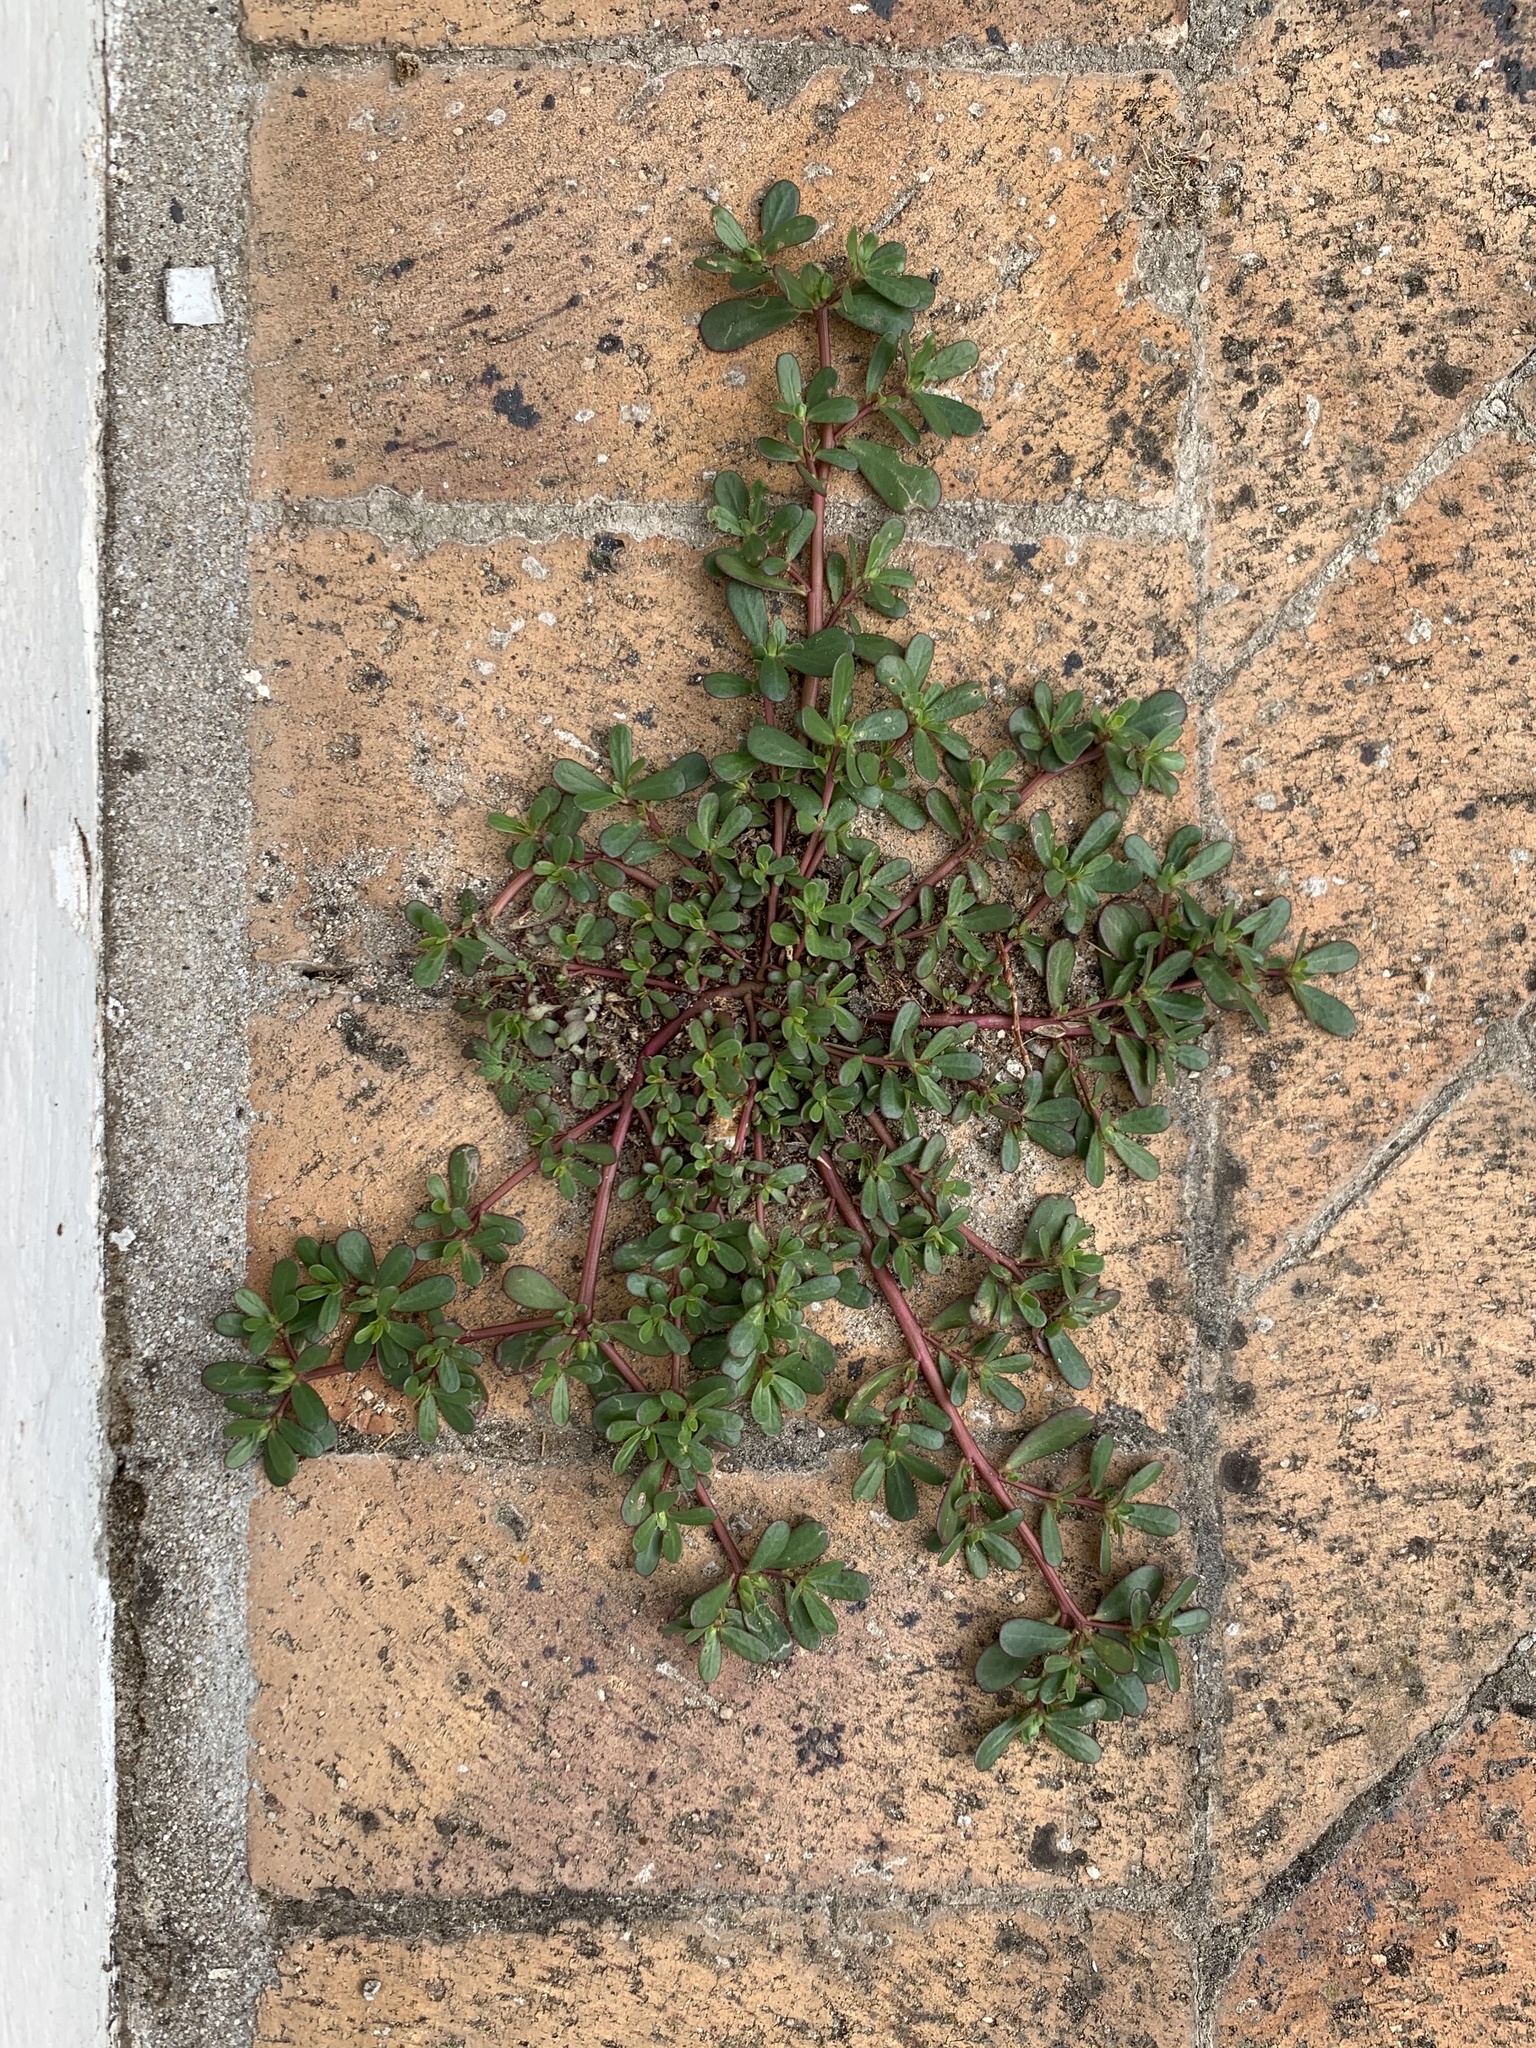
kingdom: Plantae
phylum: Tracheophyta
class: Magnoliopsida
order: Caryophyllales
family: Portulacaceae
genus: Portulaca
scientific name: Portulaca oleracea
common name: Common purslane
